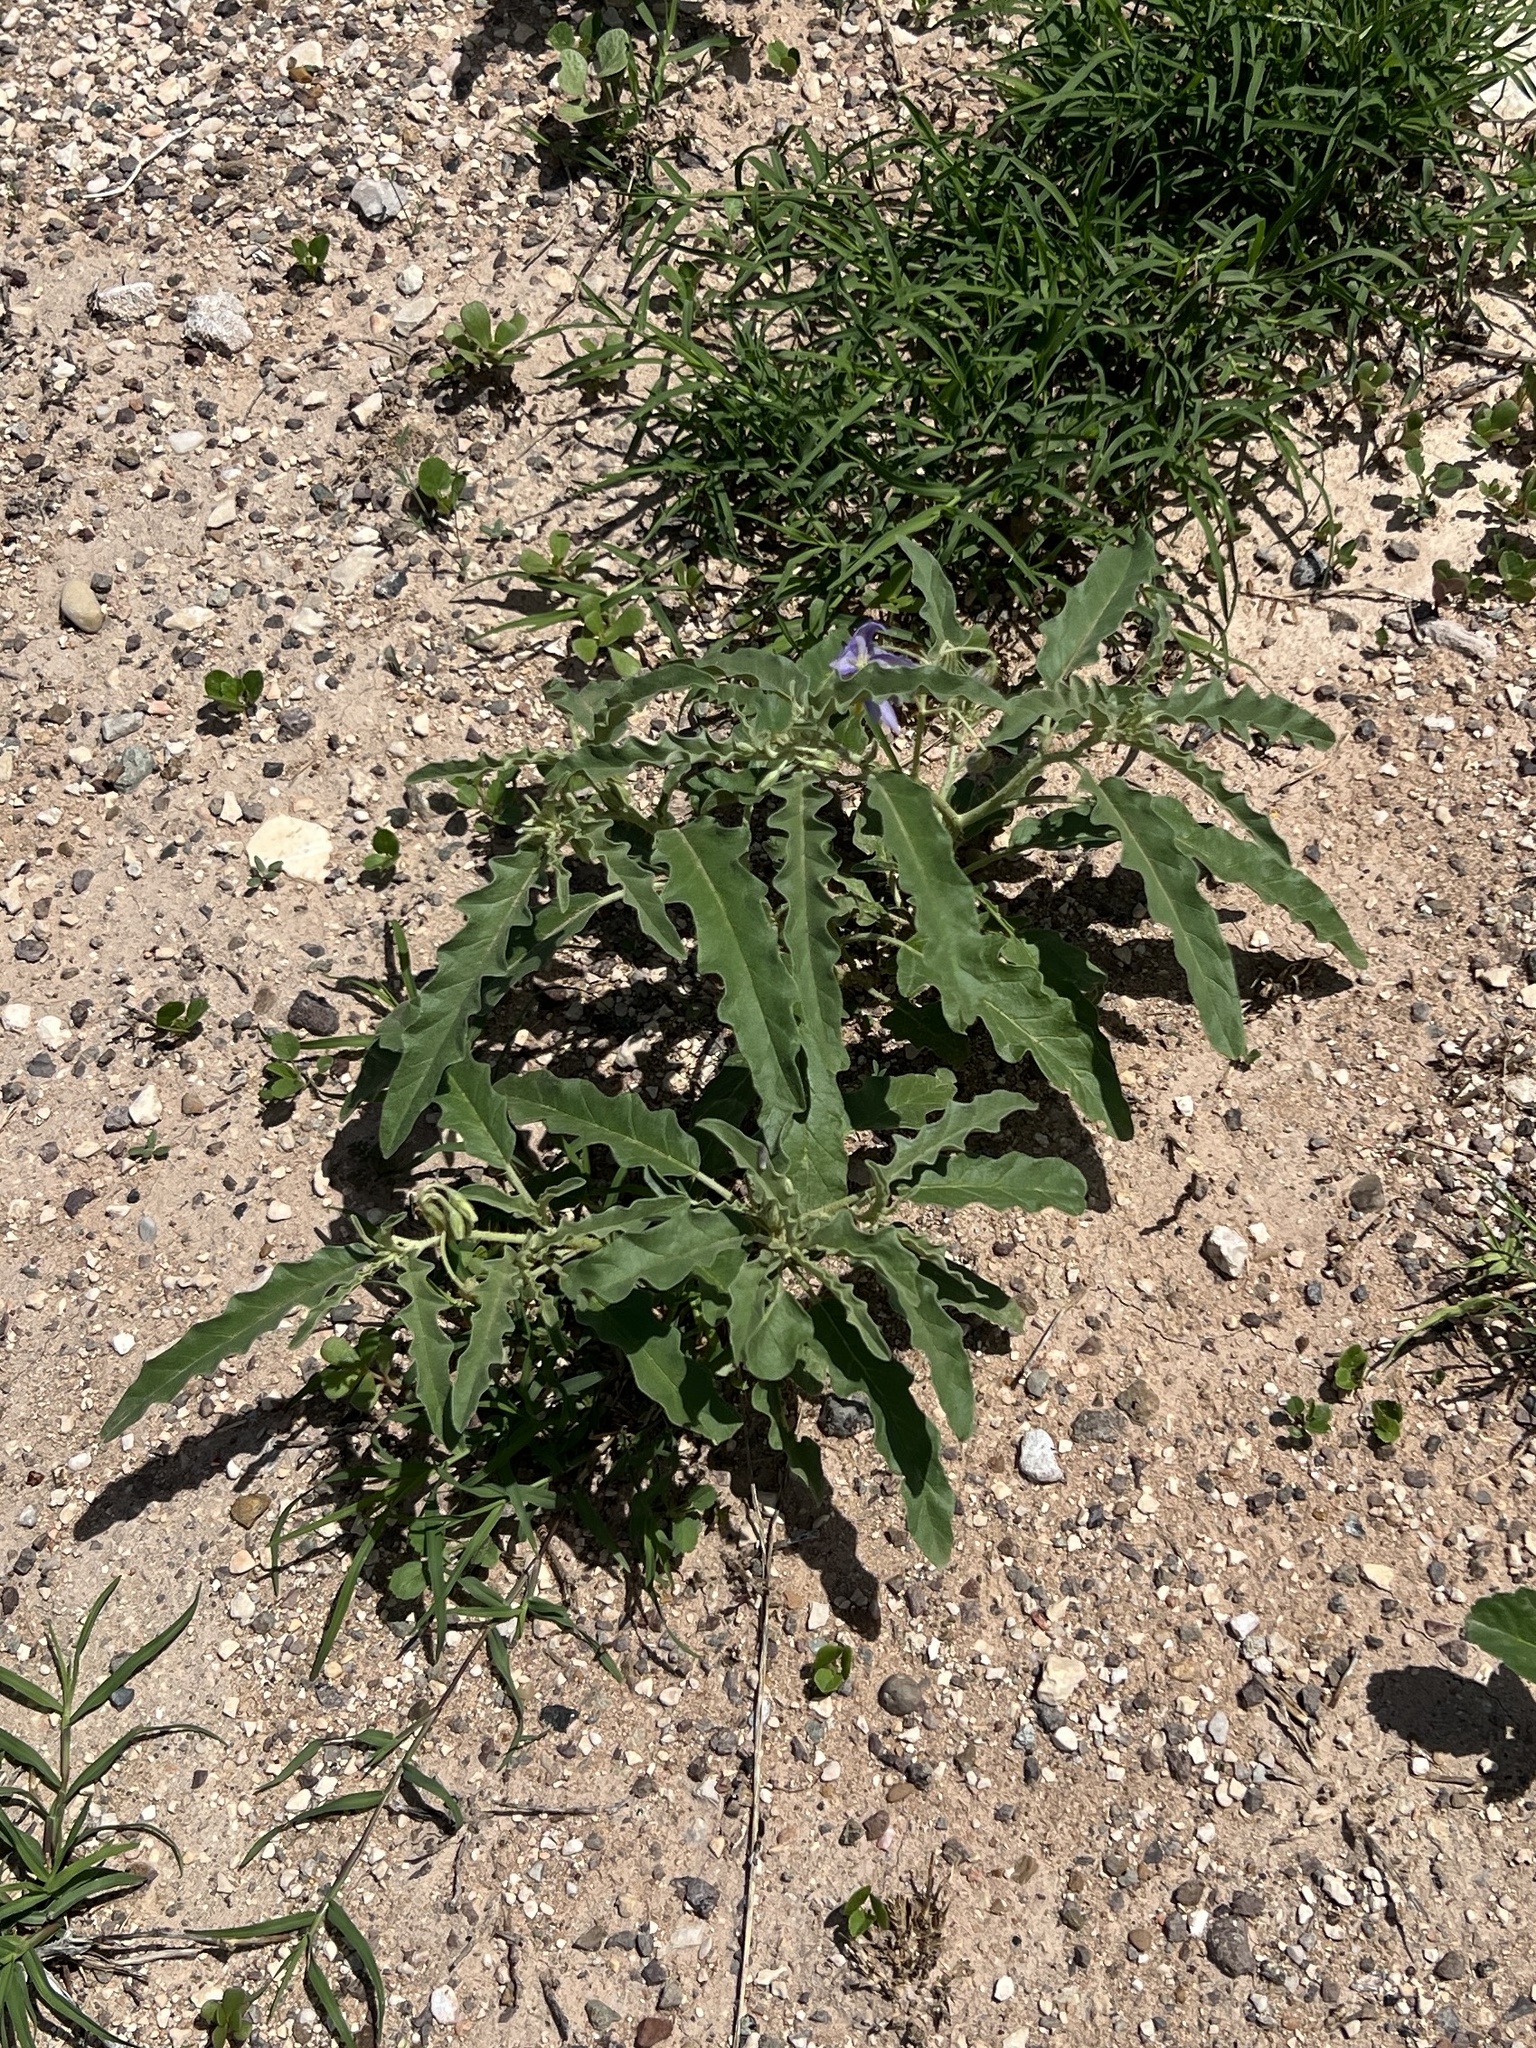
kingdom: Plantae
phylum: Tracheophyta
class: Magnoliopsida
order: Solanales
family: Solanaceae
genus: Solanum
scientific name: Solanum elaeagnifolium
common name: Silverleaf nightshade
